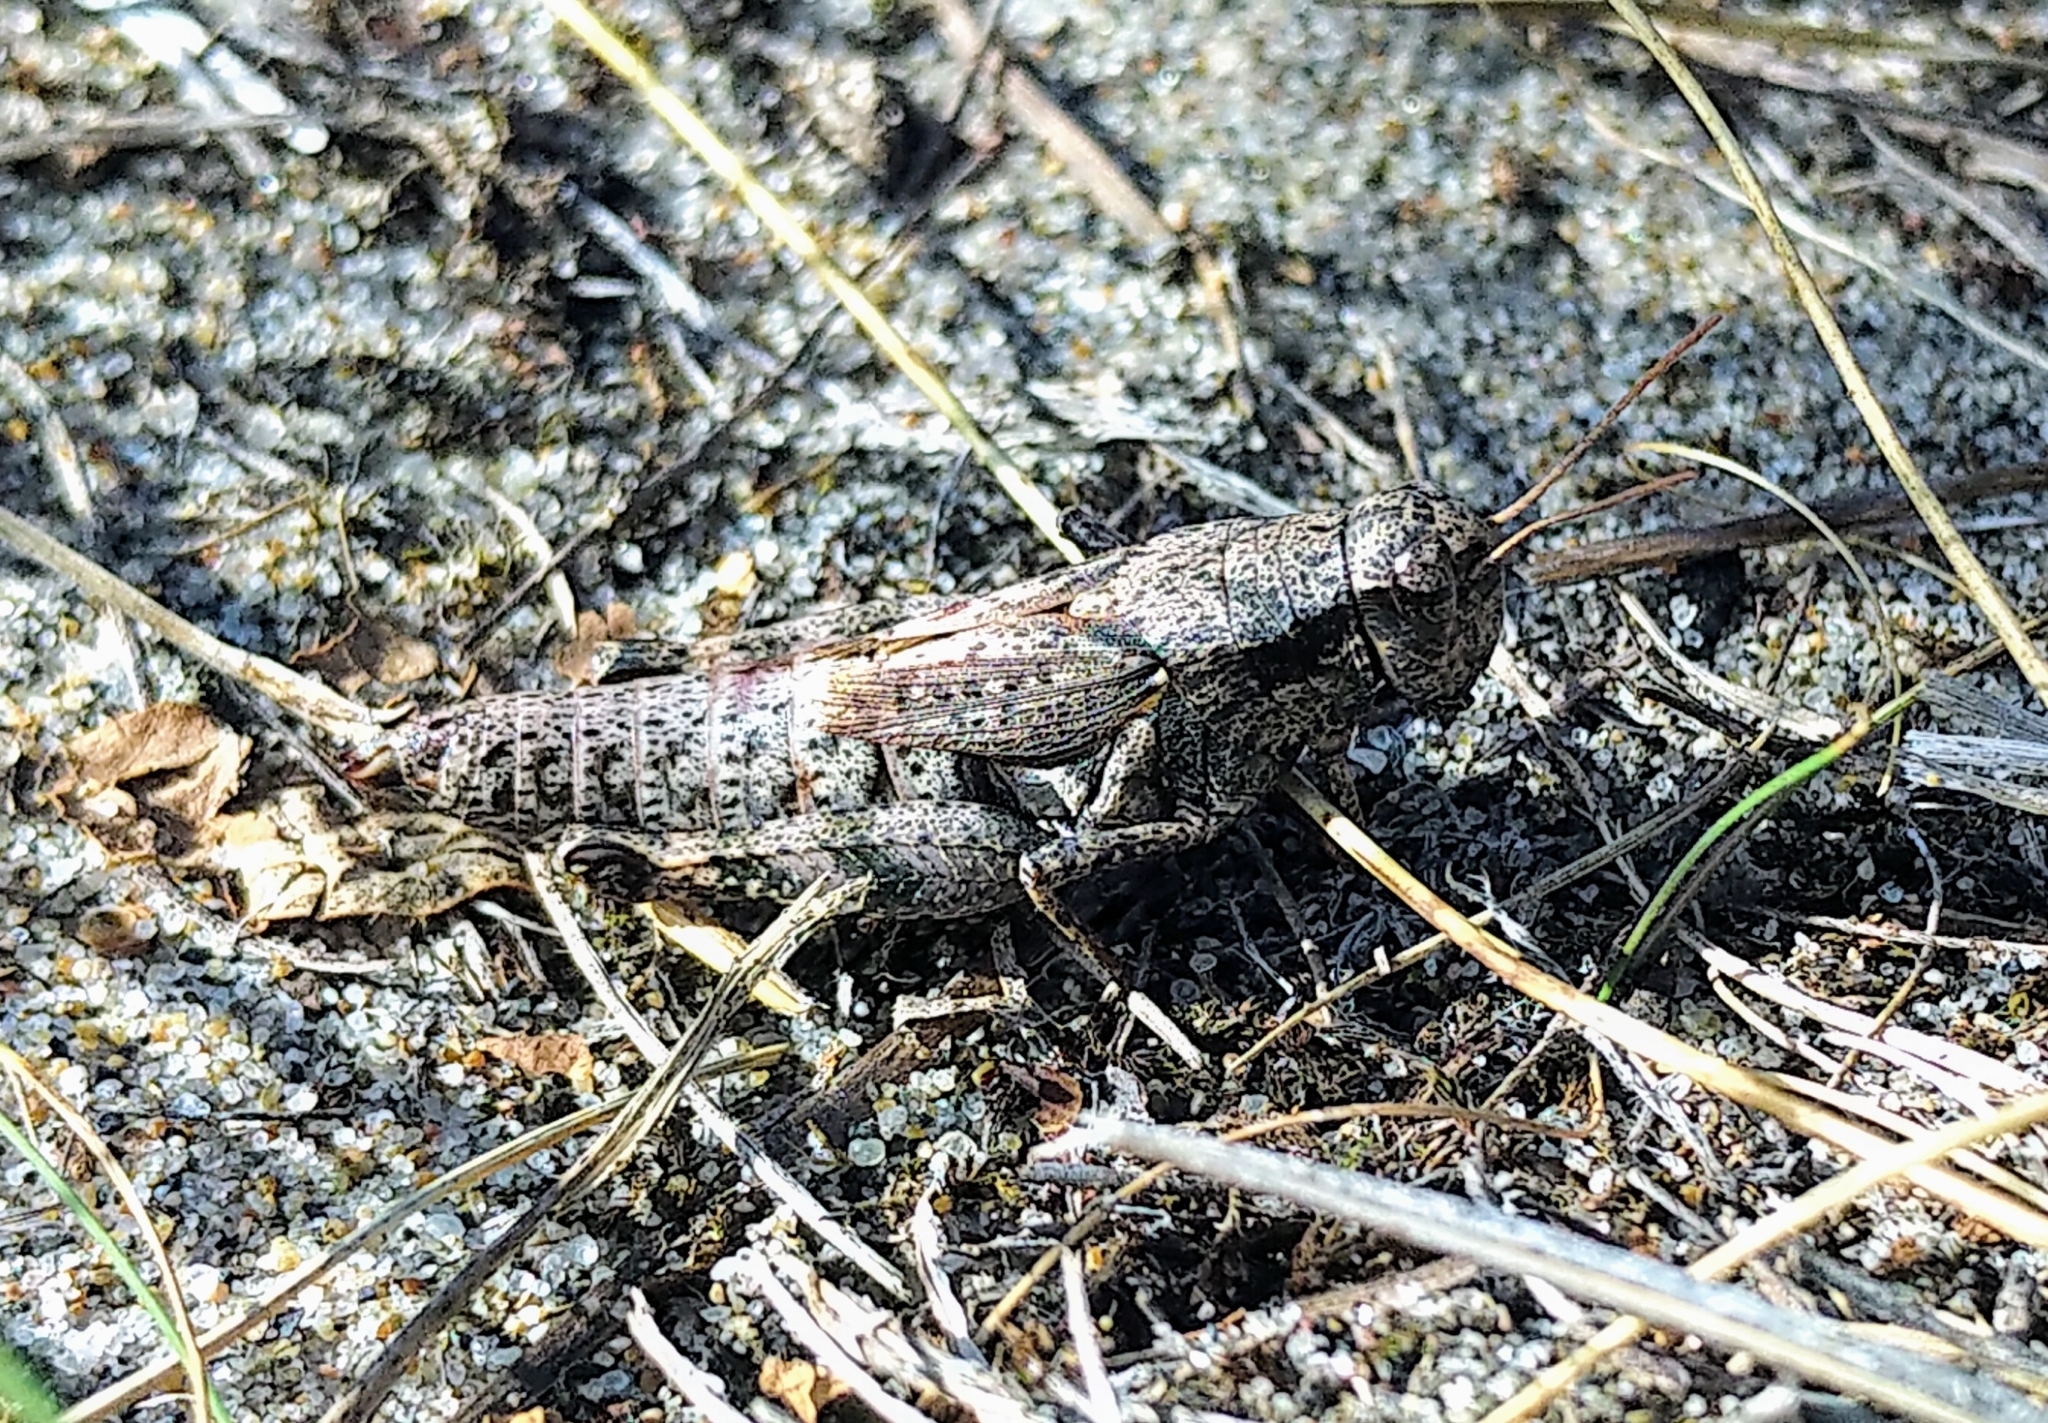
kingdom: Animalia
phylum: Arthropoda
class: Insecta
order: Orthoptera
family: Acrididae
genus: Melanoplus
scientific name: Melanoplus huroni
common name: Huron short-winged locust
